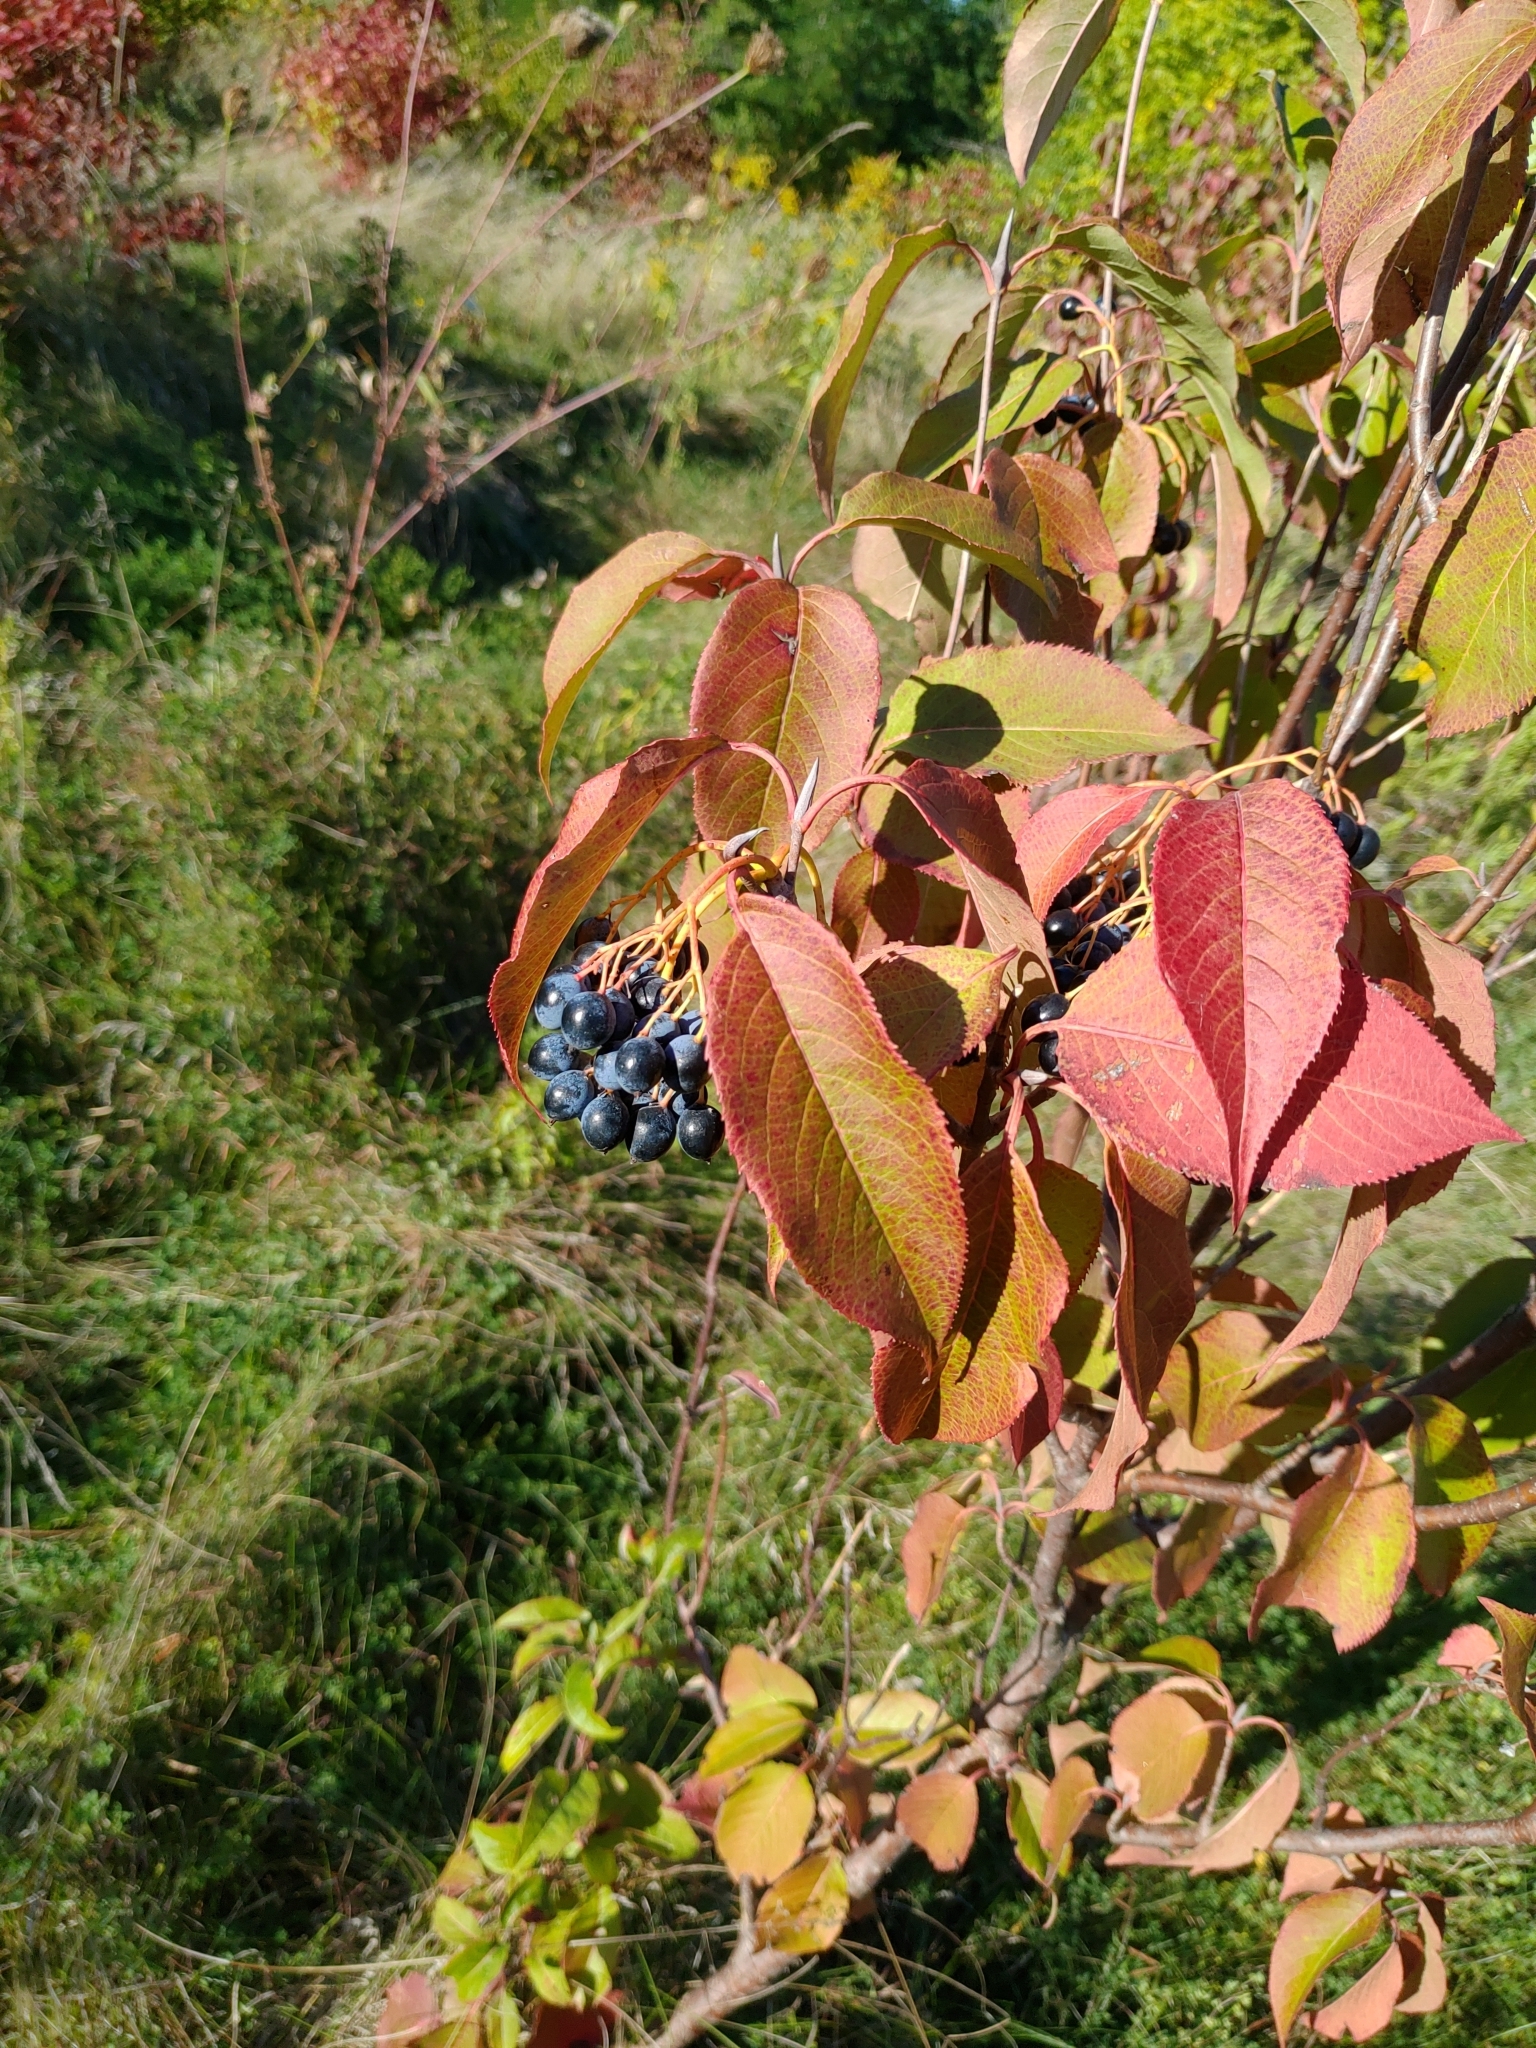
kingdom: Plantae
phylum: Tracheophyta
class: Magnoliopsida
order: Dipsacales
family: Viburnaceae
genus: Viburnum
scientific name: Viburnum lentago
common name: Black haw
